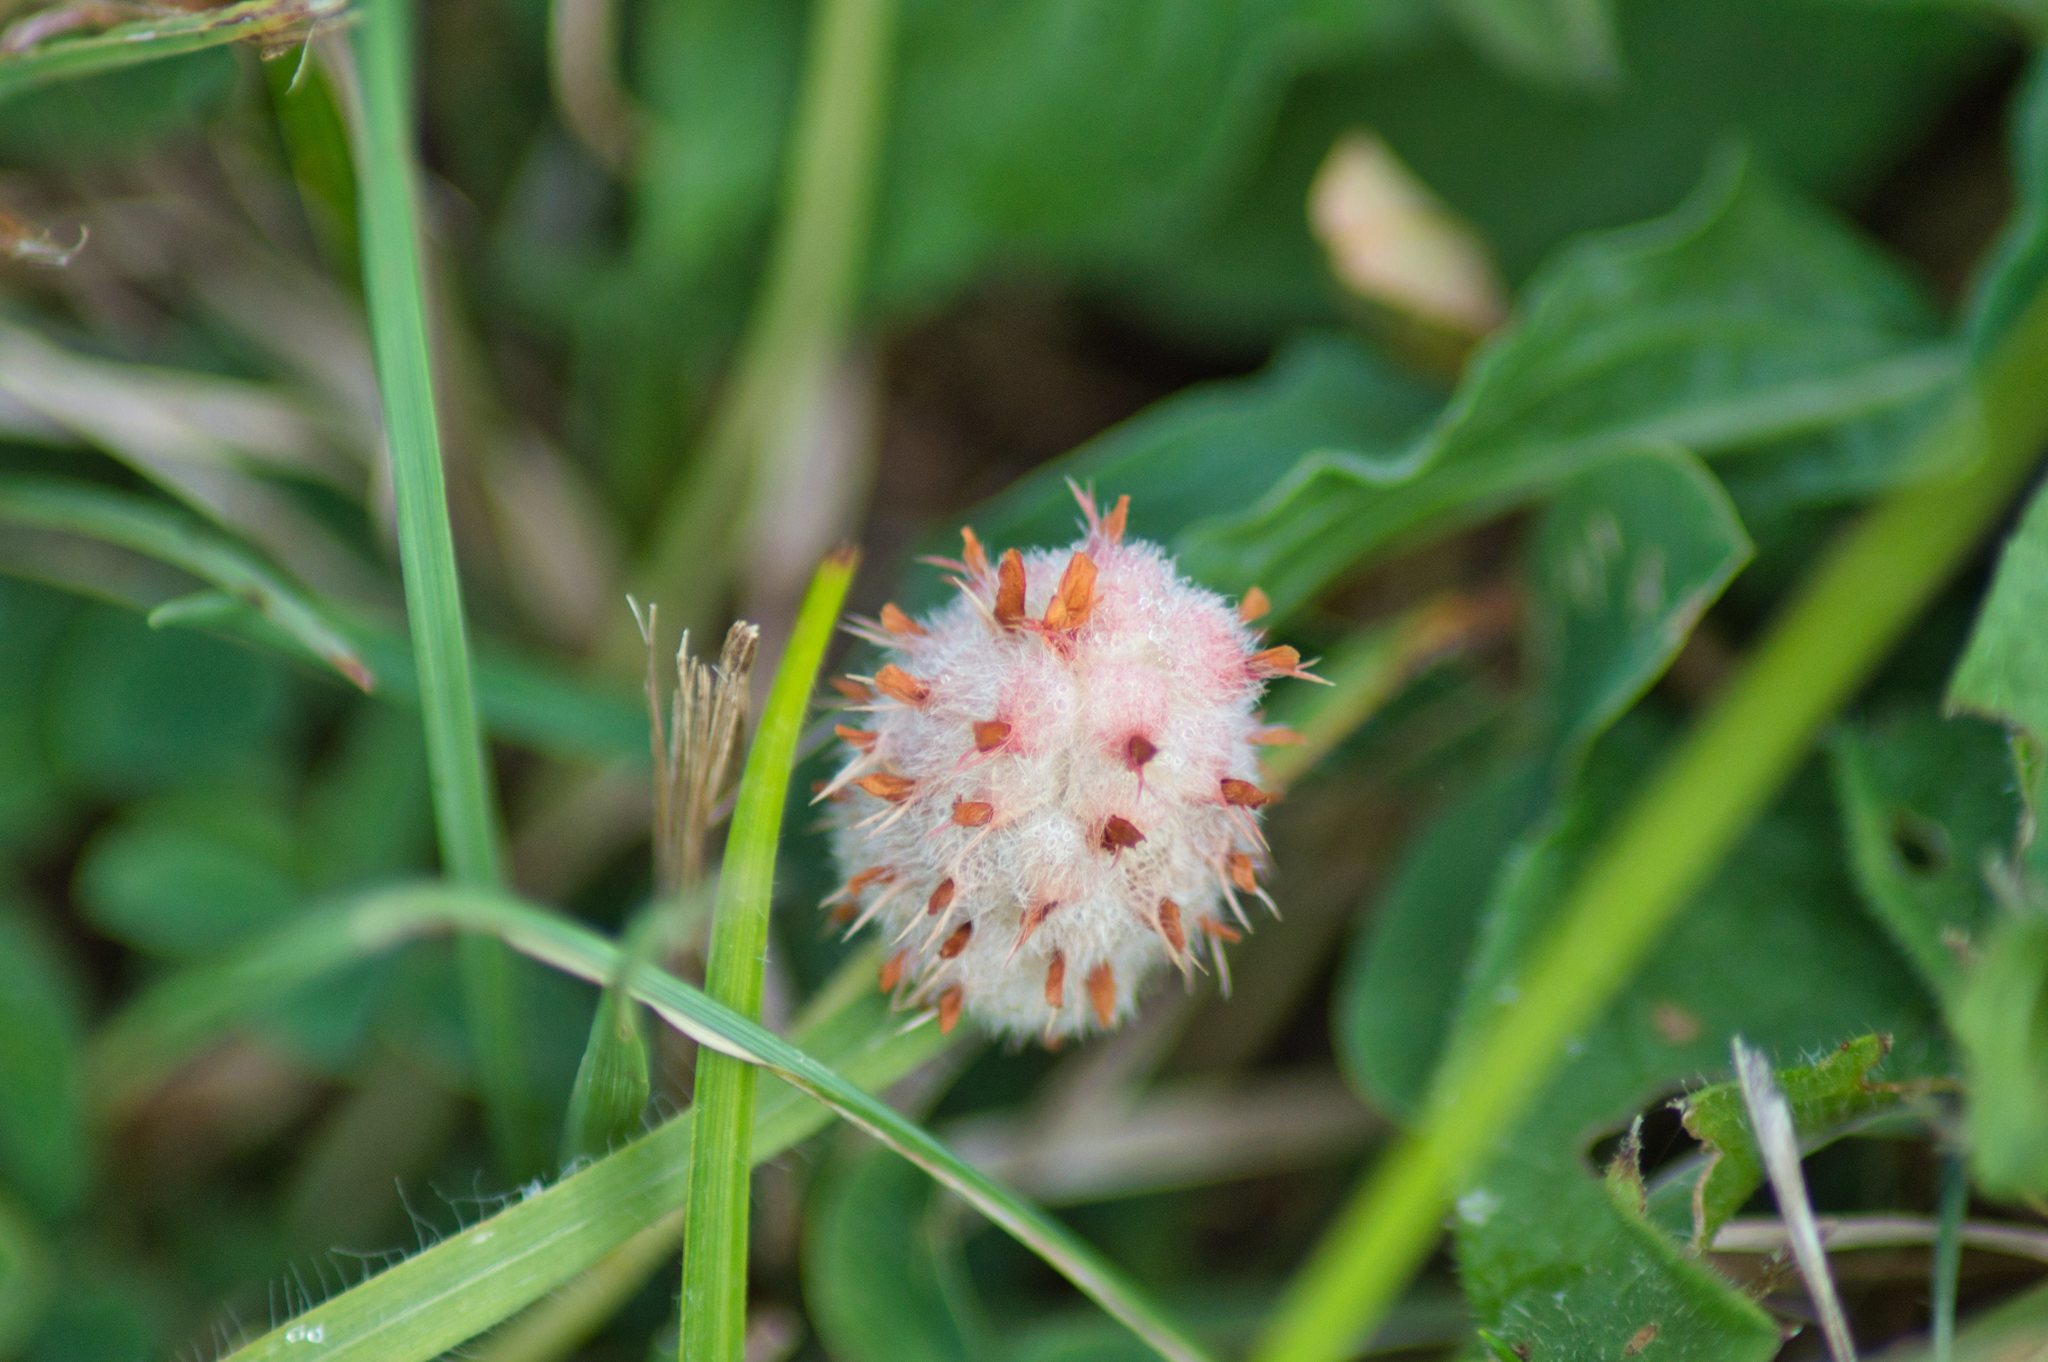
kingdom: Plantae
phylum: Tracheophyta
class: Magnoliopsida
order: Fabales
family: Fabaceae
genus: Trifolium
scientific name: Trifolium fragiferum
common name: Strawberry clover
